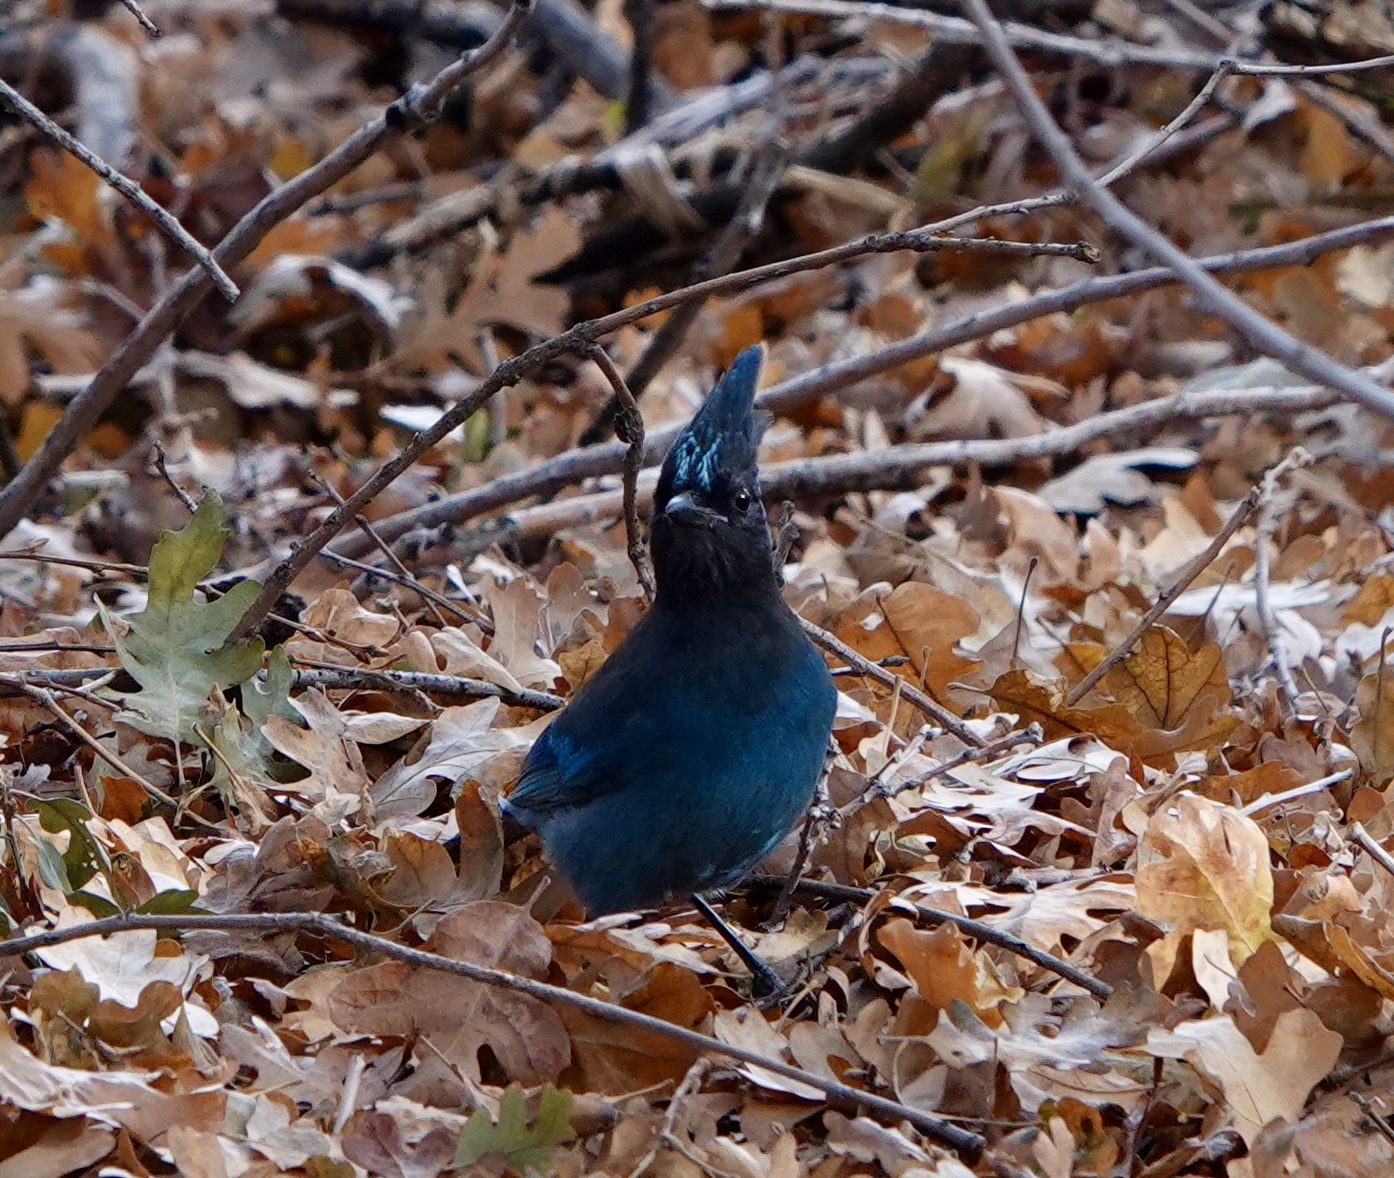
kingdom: Animalia
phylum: Chordata
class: Aves
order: Passeriformes
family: Corvidae
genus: Cyanocitta
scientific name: Cyanocitta stelleri
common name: Steller's jay
